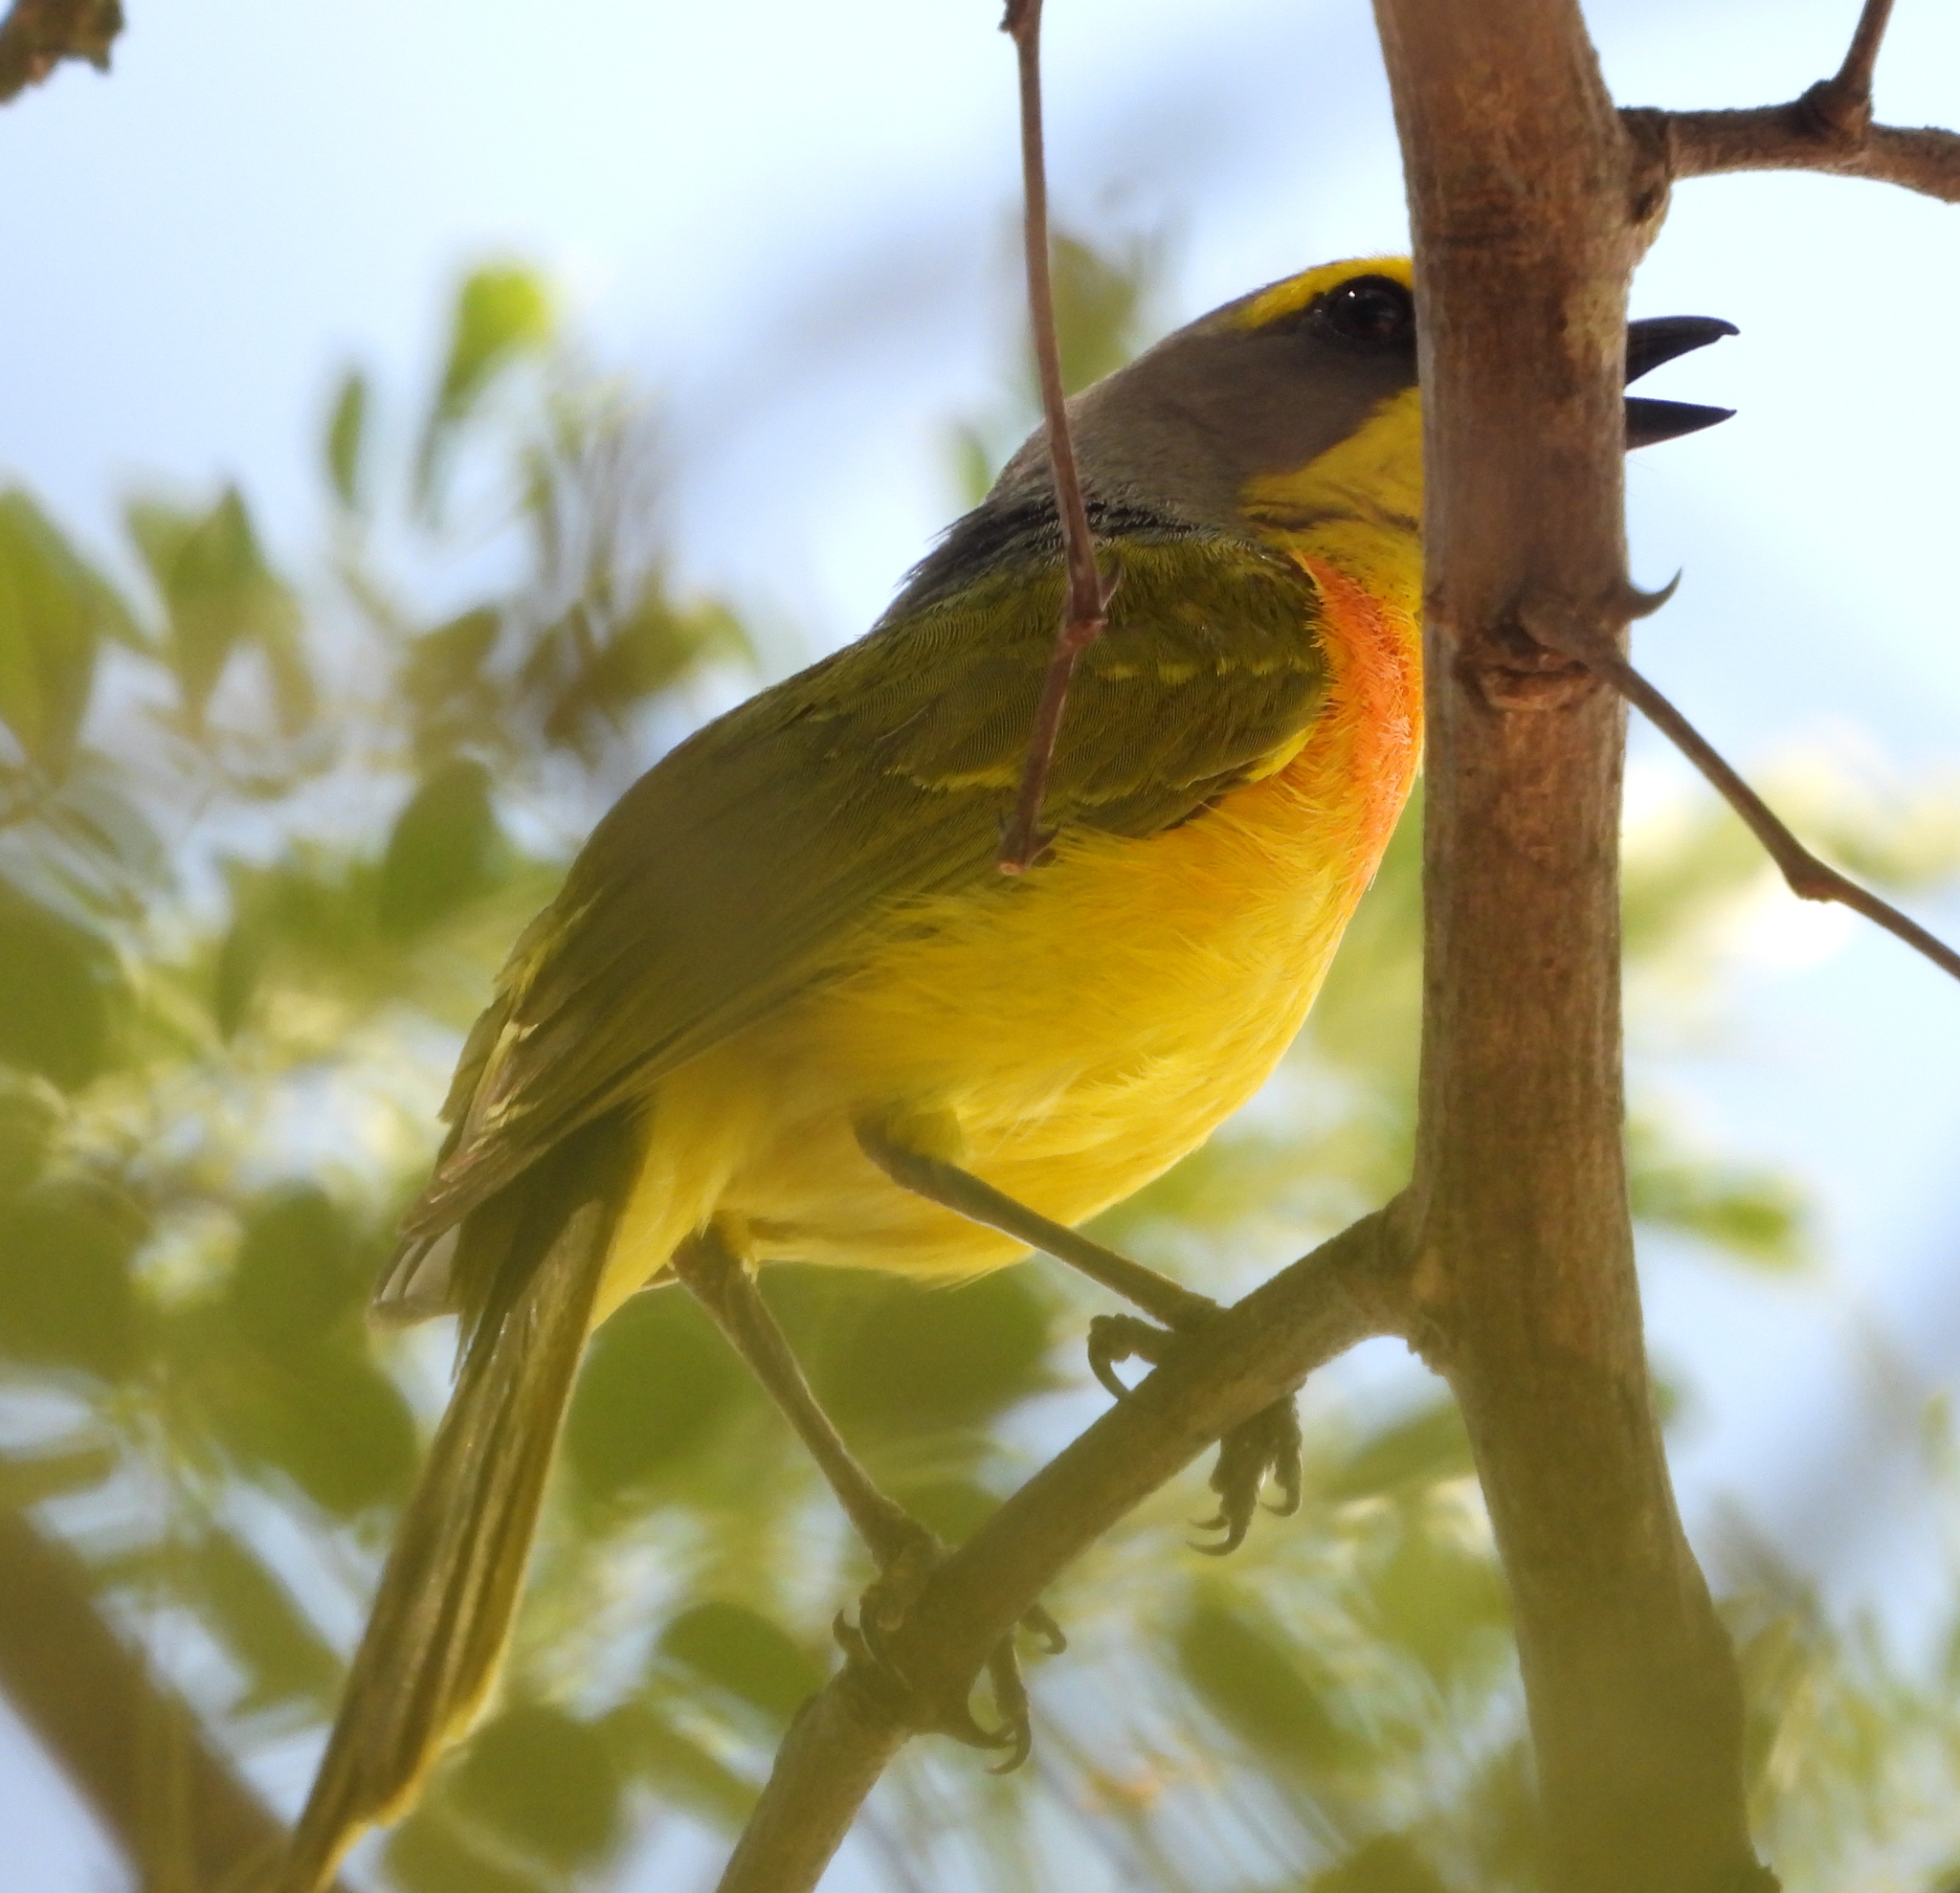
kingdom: Animalia
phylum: Chordata
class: Aves
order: Passeriformes
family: Malaconotidae
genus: Chlorophoneus
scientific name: Chlorophoneus sulfureopectus
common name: Orange-breasted bushshrike
